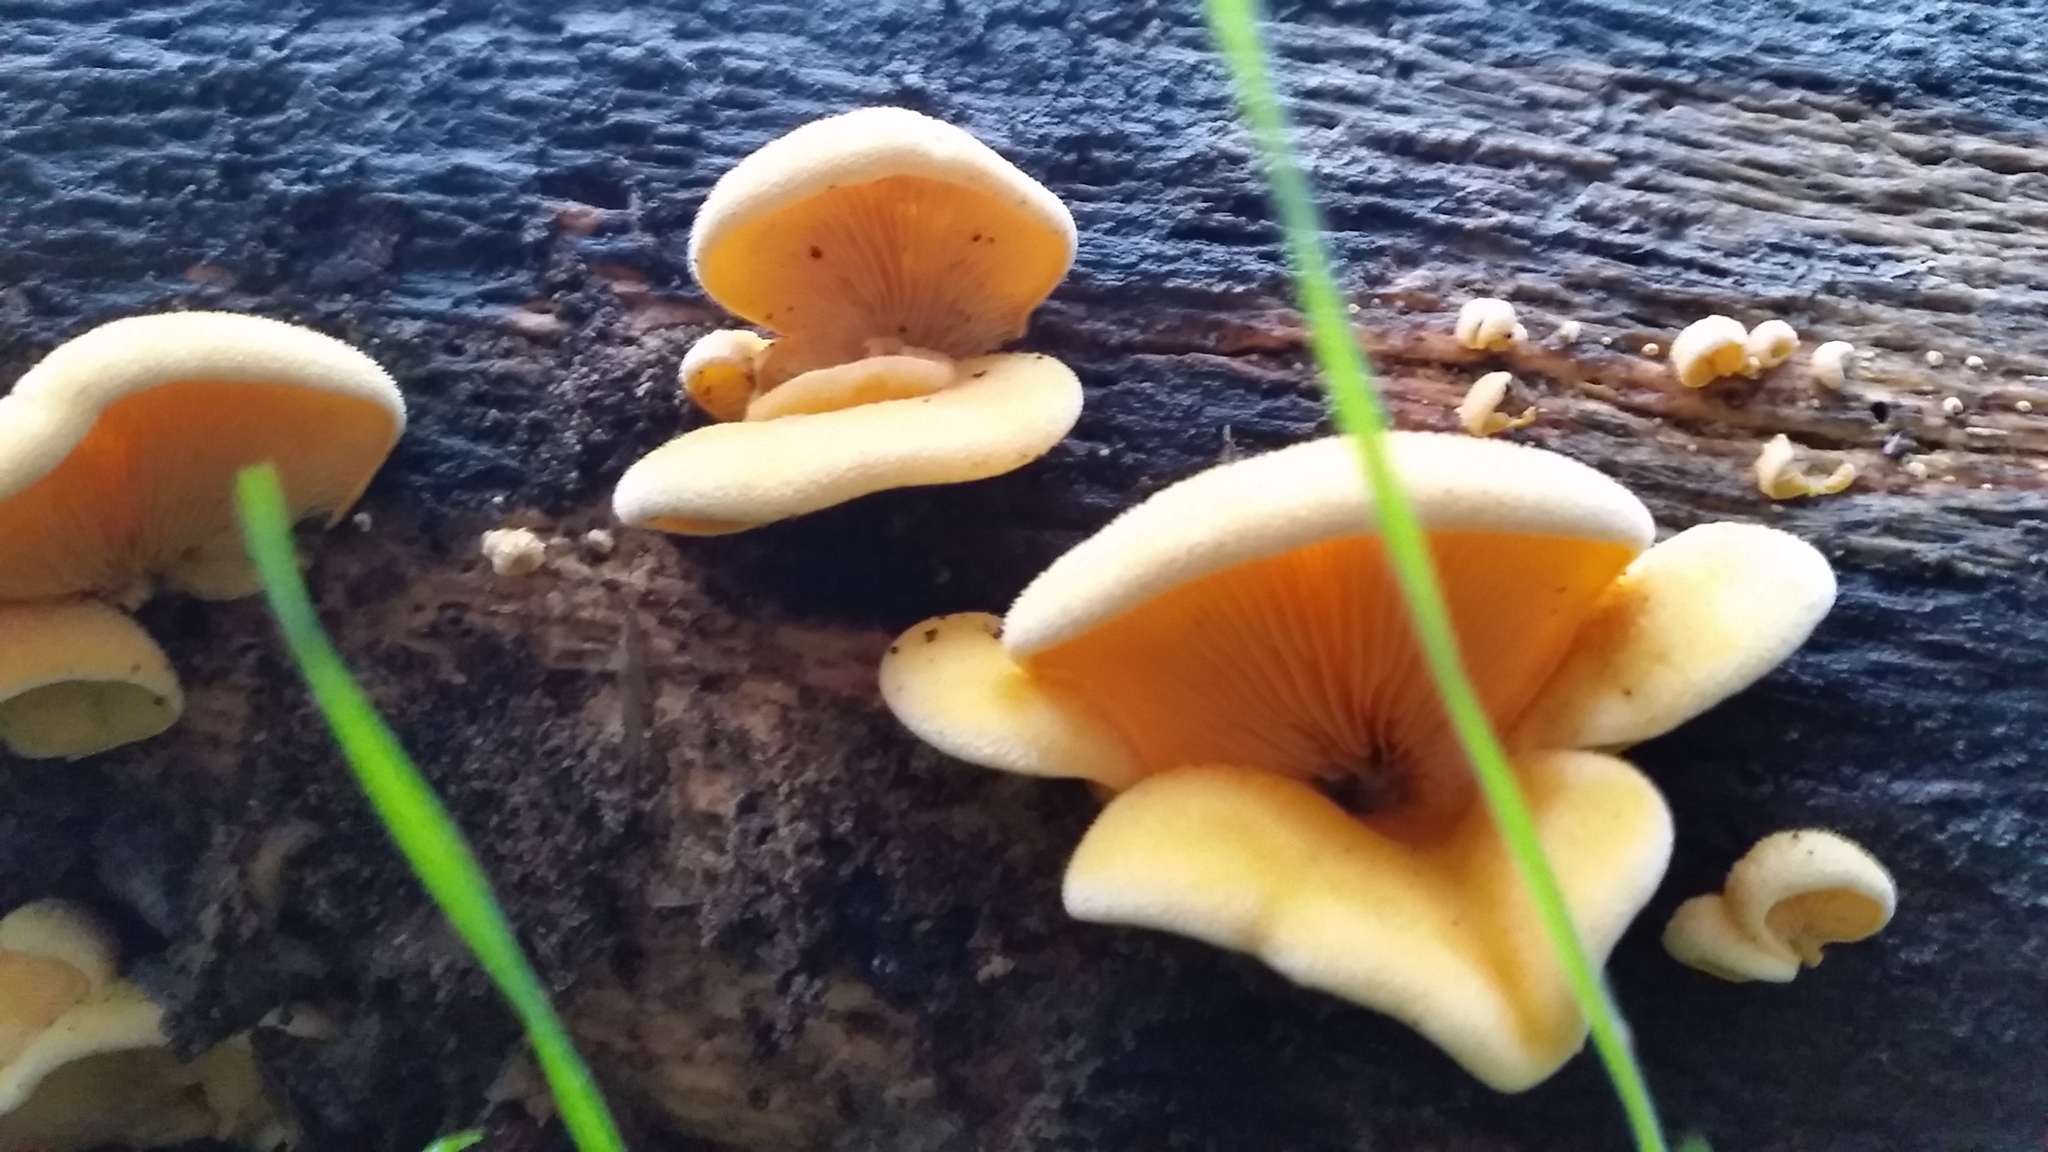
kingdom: Fungi
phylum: Basidiomycota
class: Agaricomycetes
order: Agaricales
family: Phyllotopsidaceae
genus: Phyllotopsis
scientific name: Phyllotopsis nidulans
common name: Orange mock oyster
